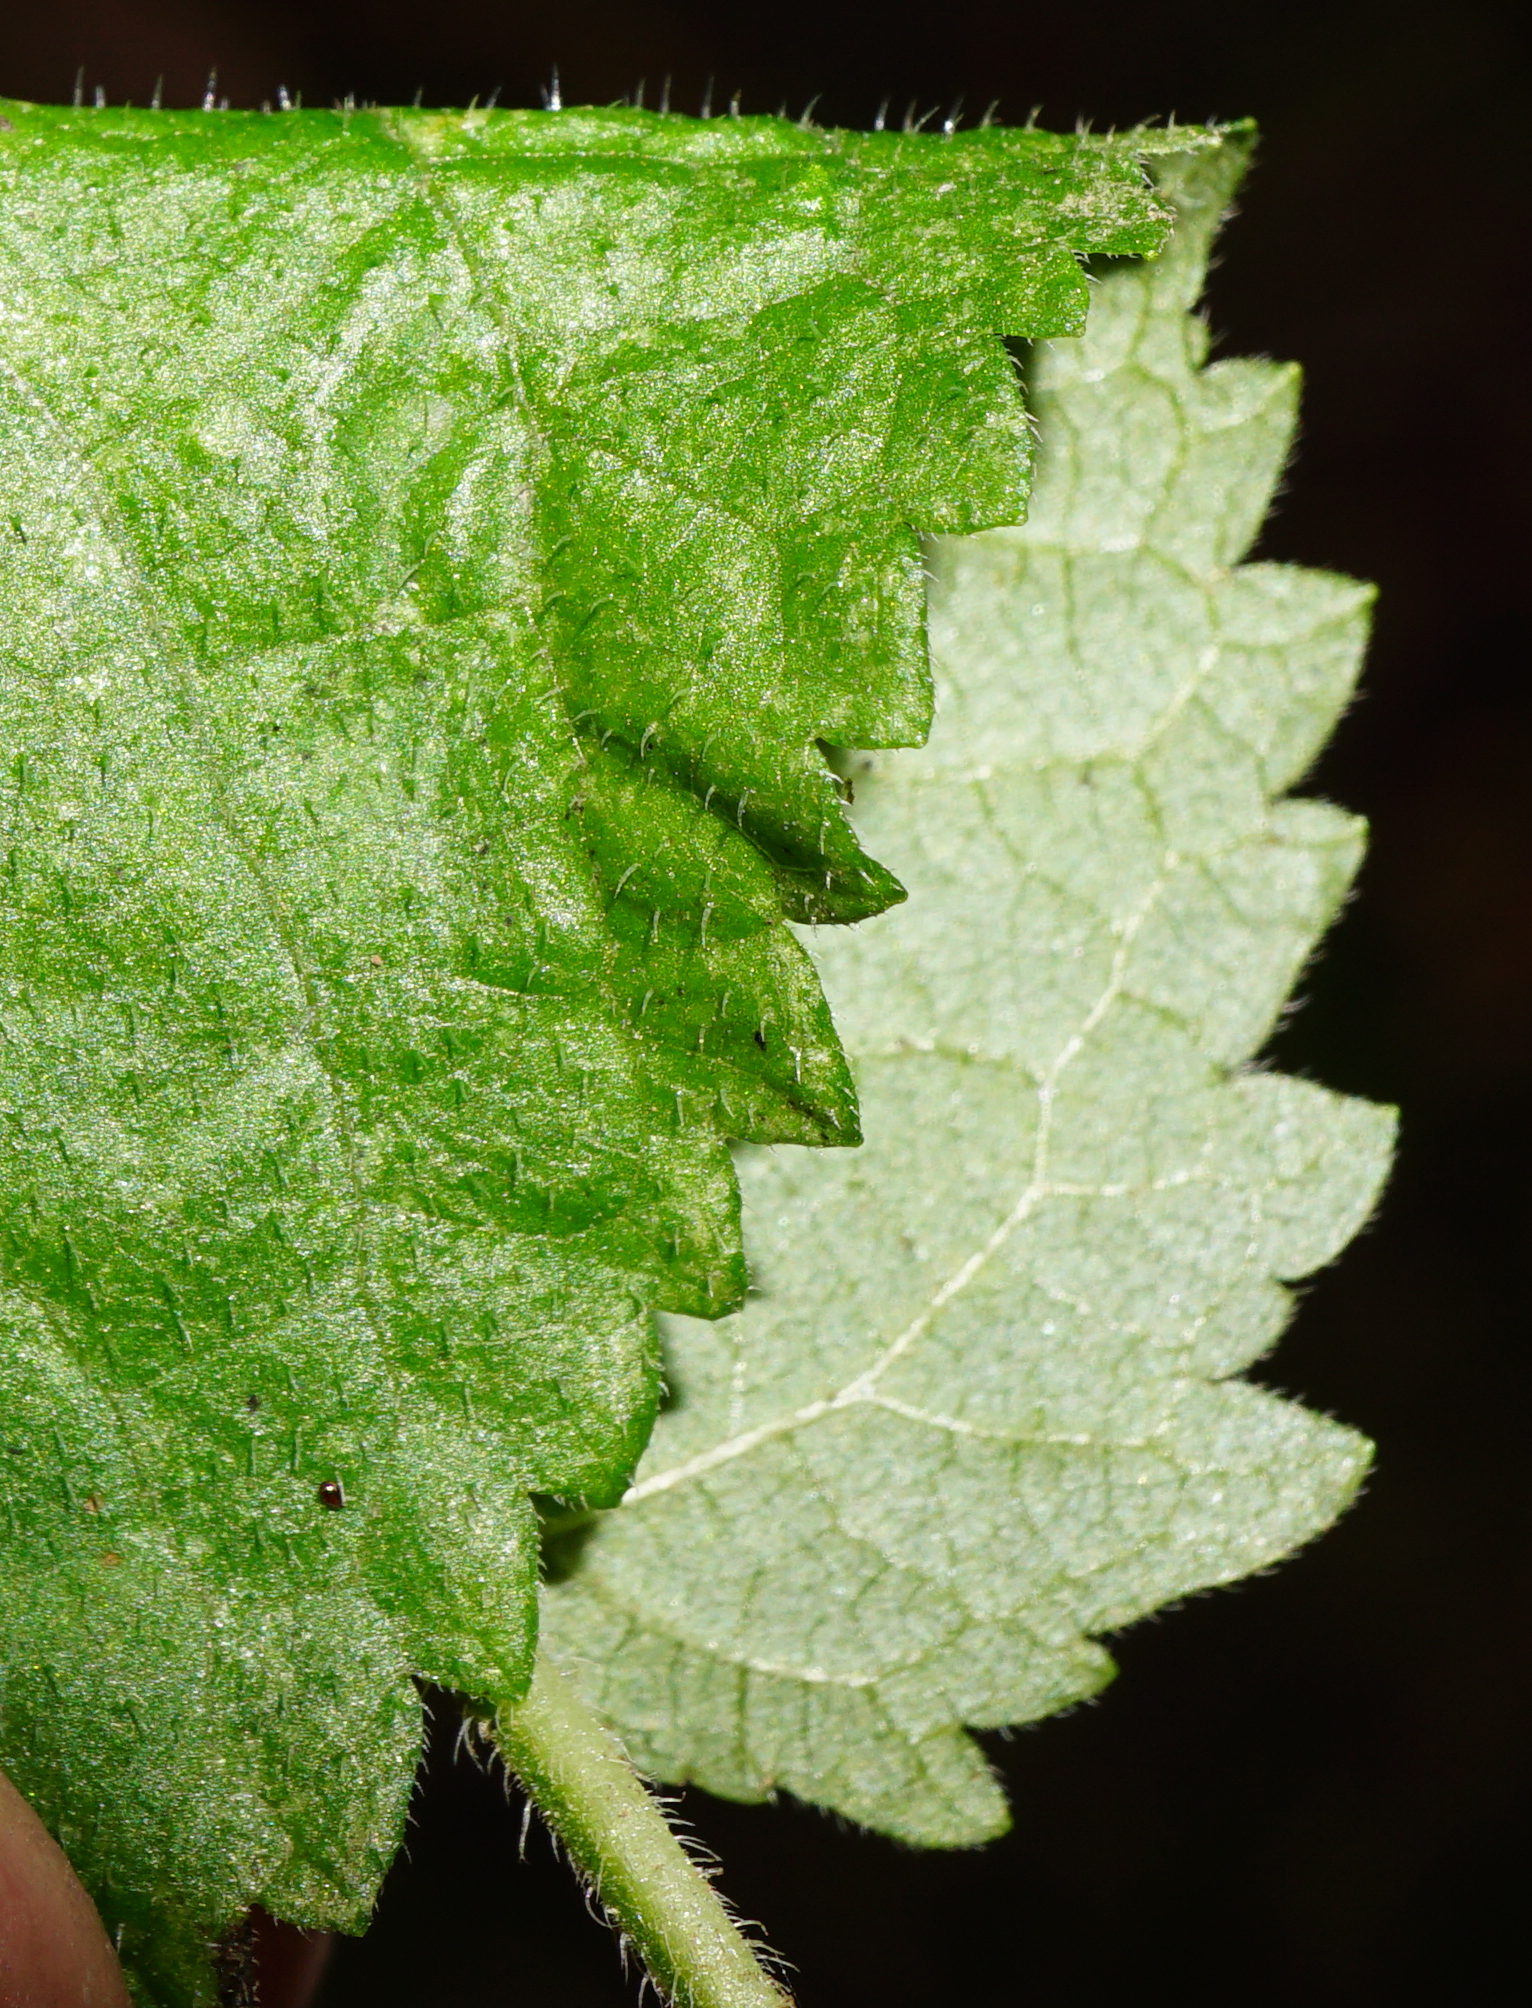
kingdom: Plantae
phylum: Tracheophyta
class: Magnoliopsida
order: Lamiales
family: Lamiaceae
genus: Salvia
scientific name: Salvia glutinosa
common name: Sticky clary
